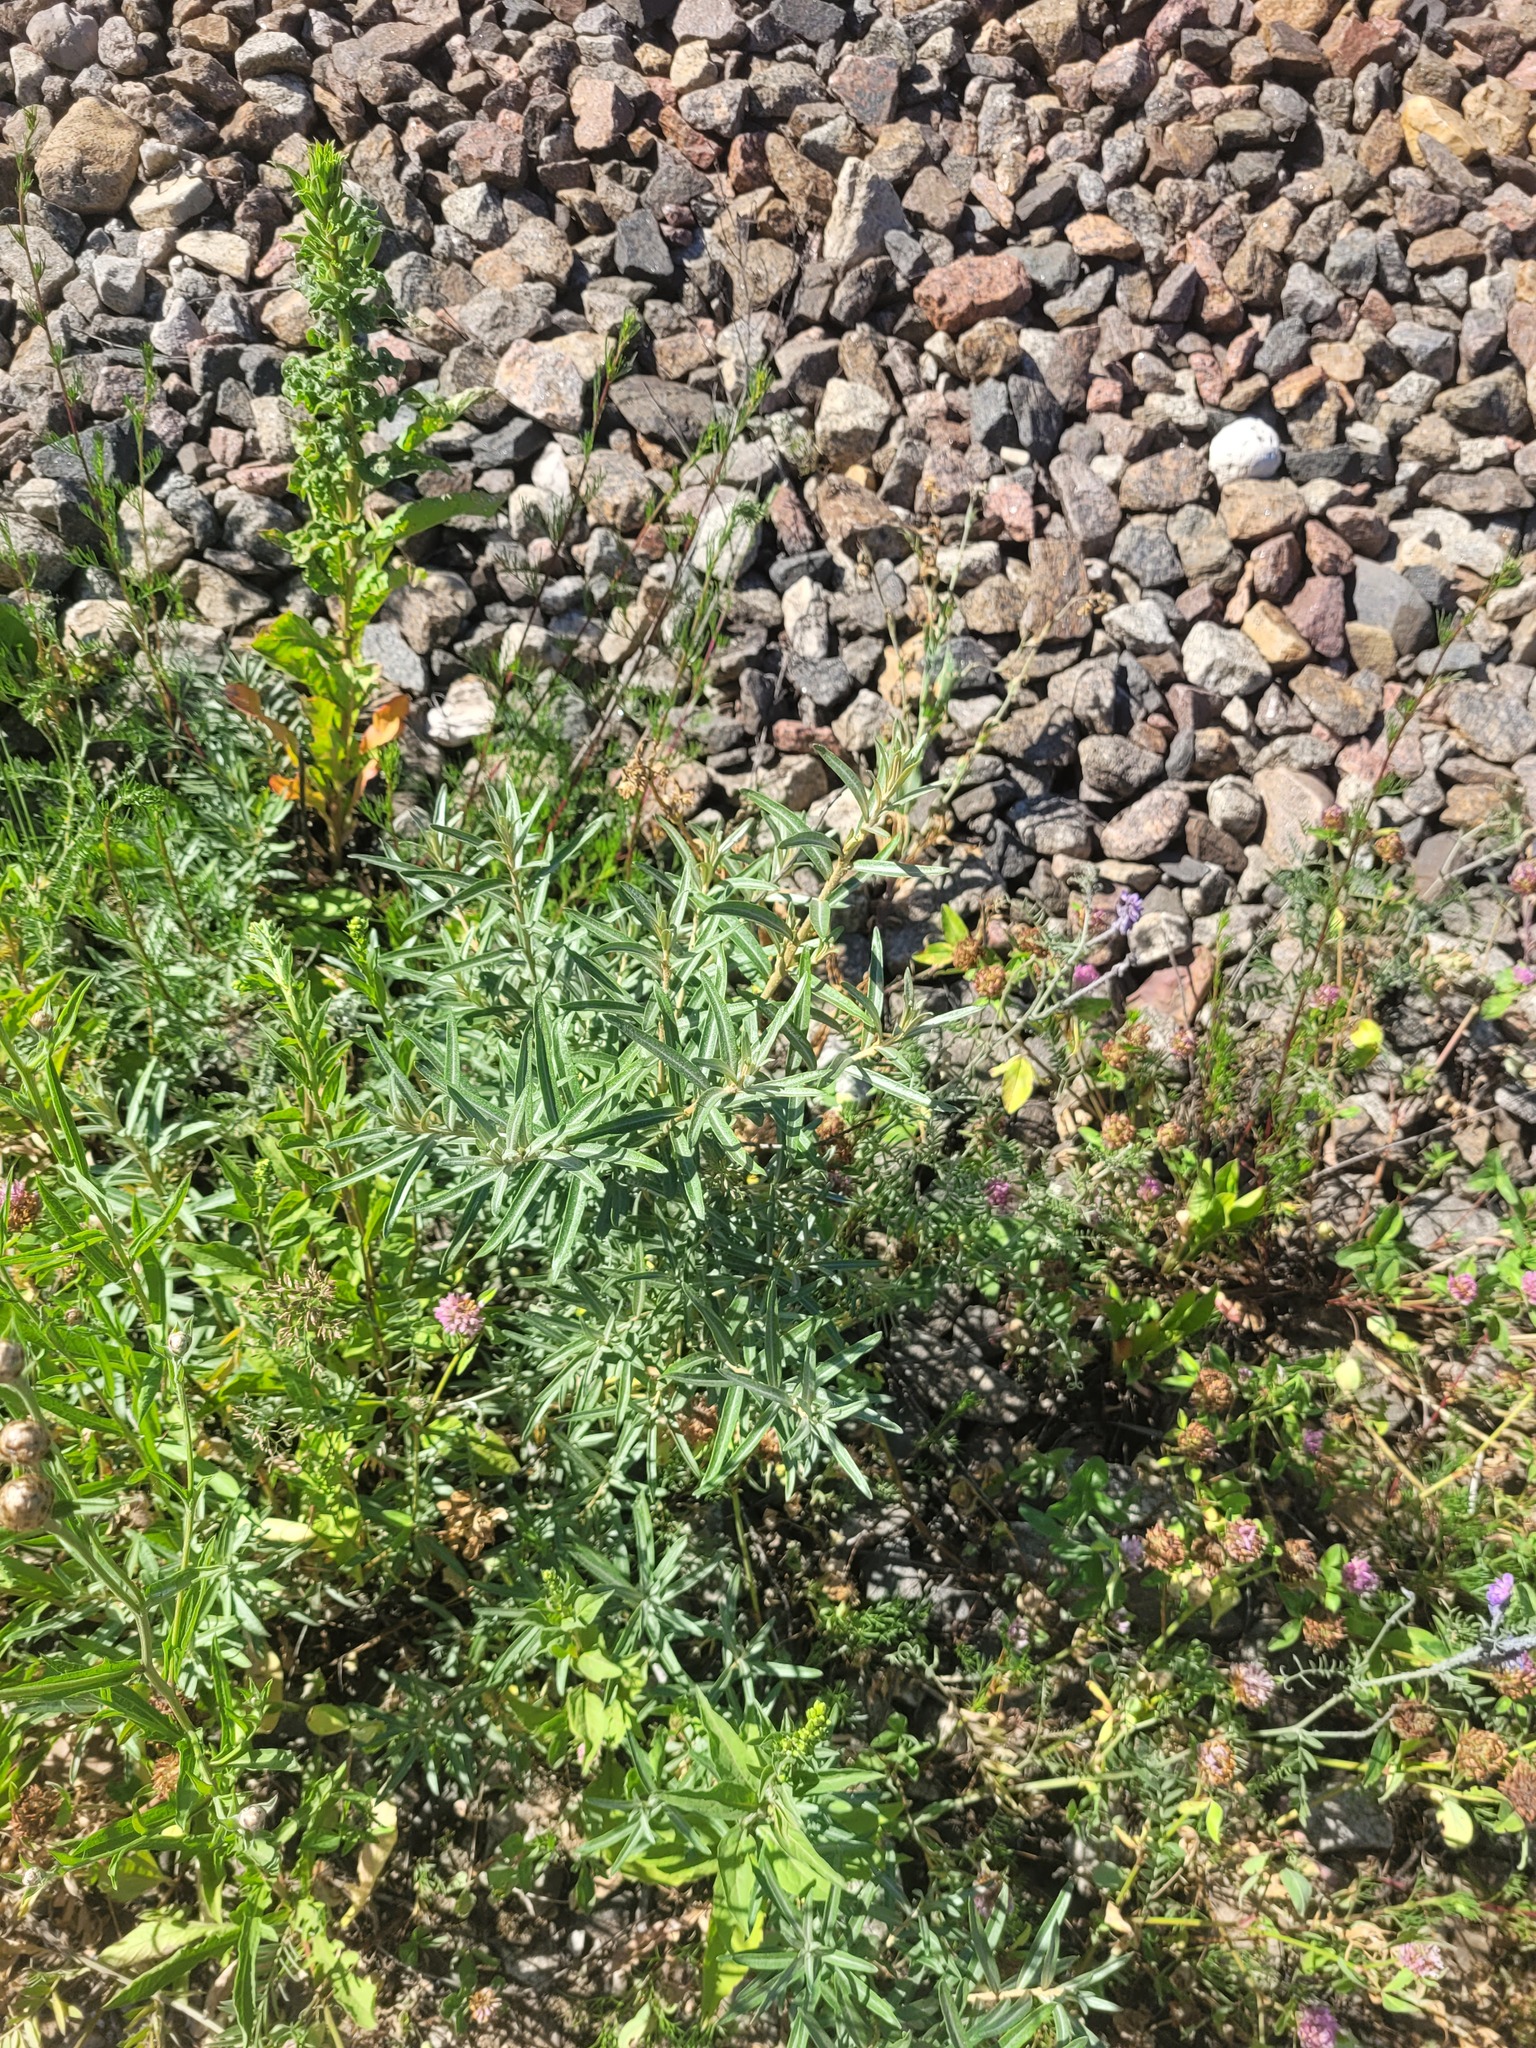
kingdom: Plantae
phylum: Tracheophyta
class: Magnoliopsida
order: Rosales
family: Elaeagnaceae
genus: Hippophae
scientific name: Hippophae rhamnoides
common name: Sea-buckthorn
